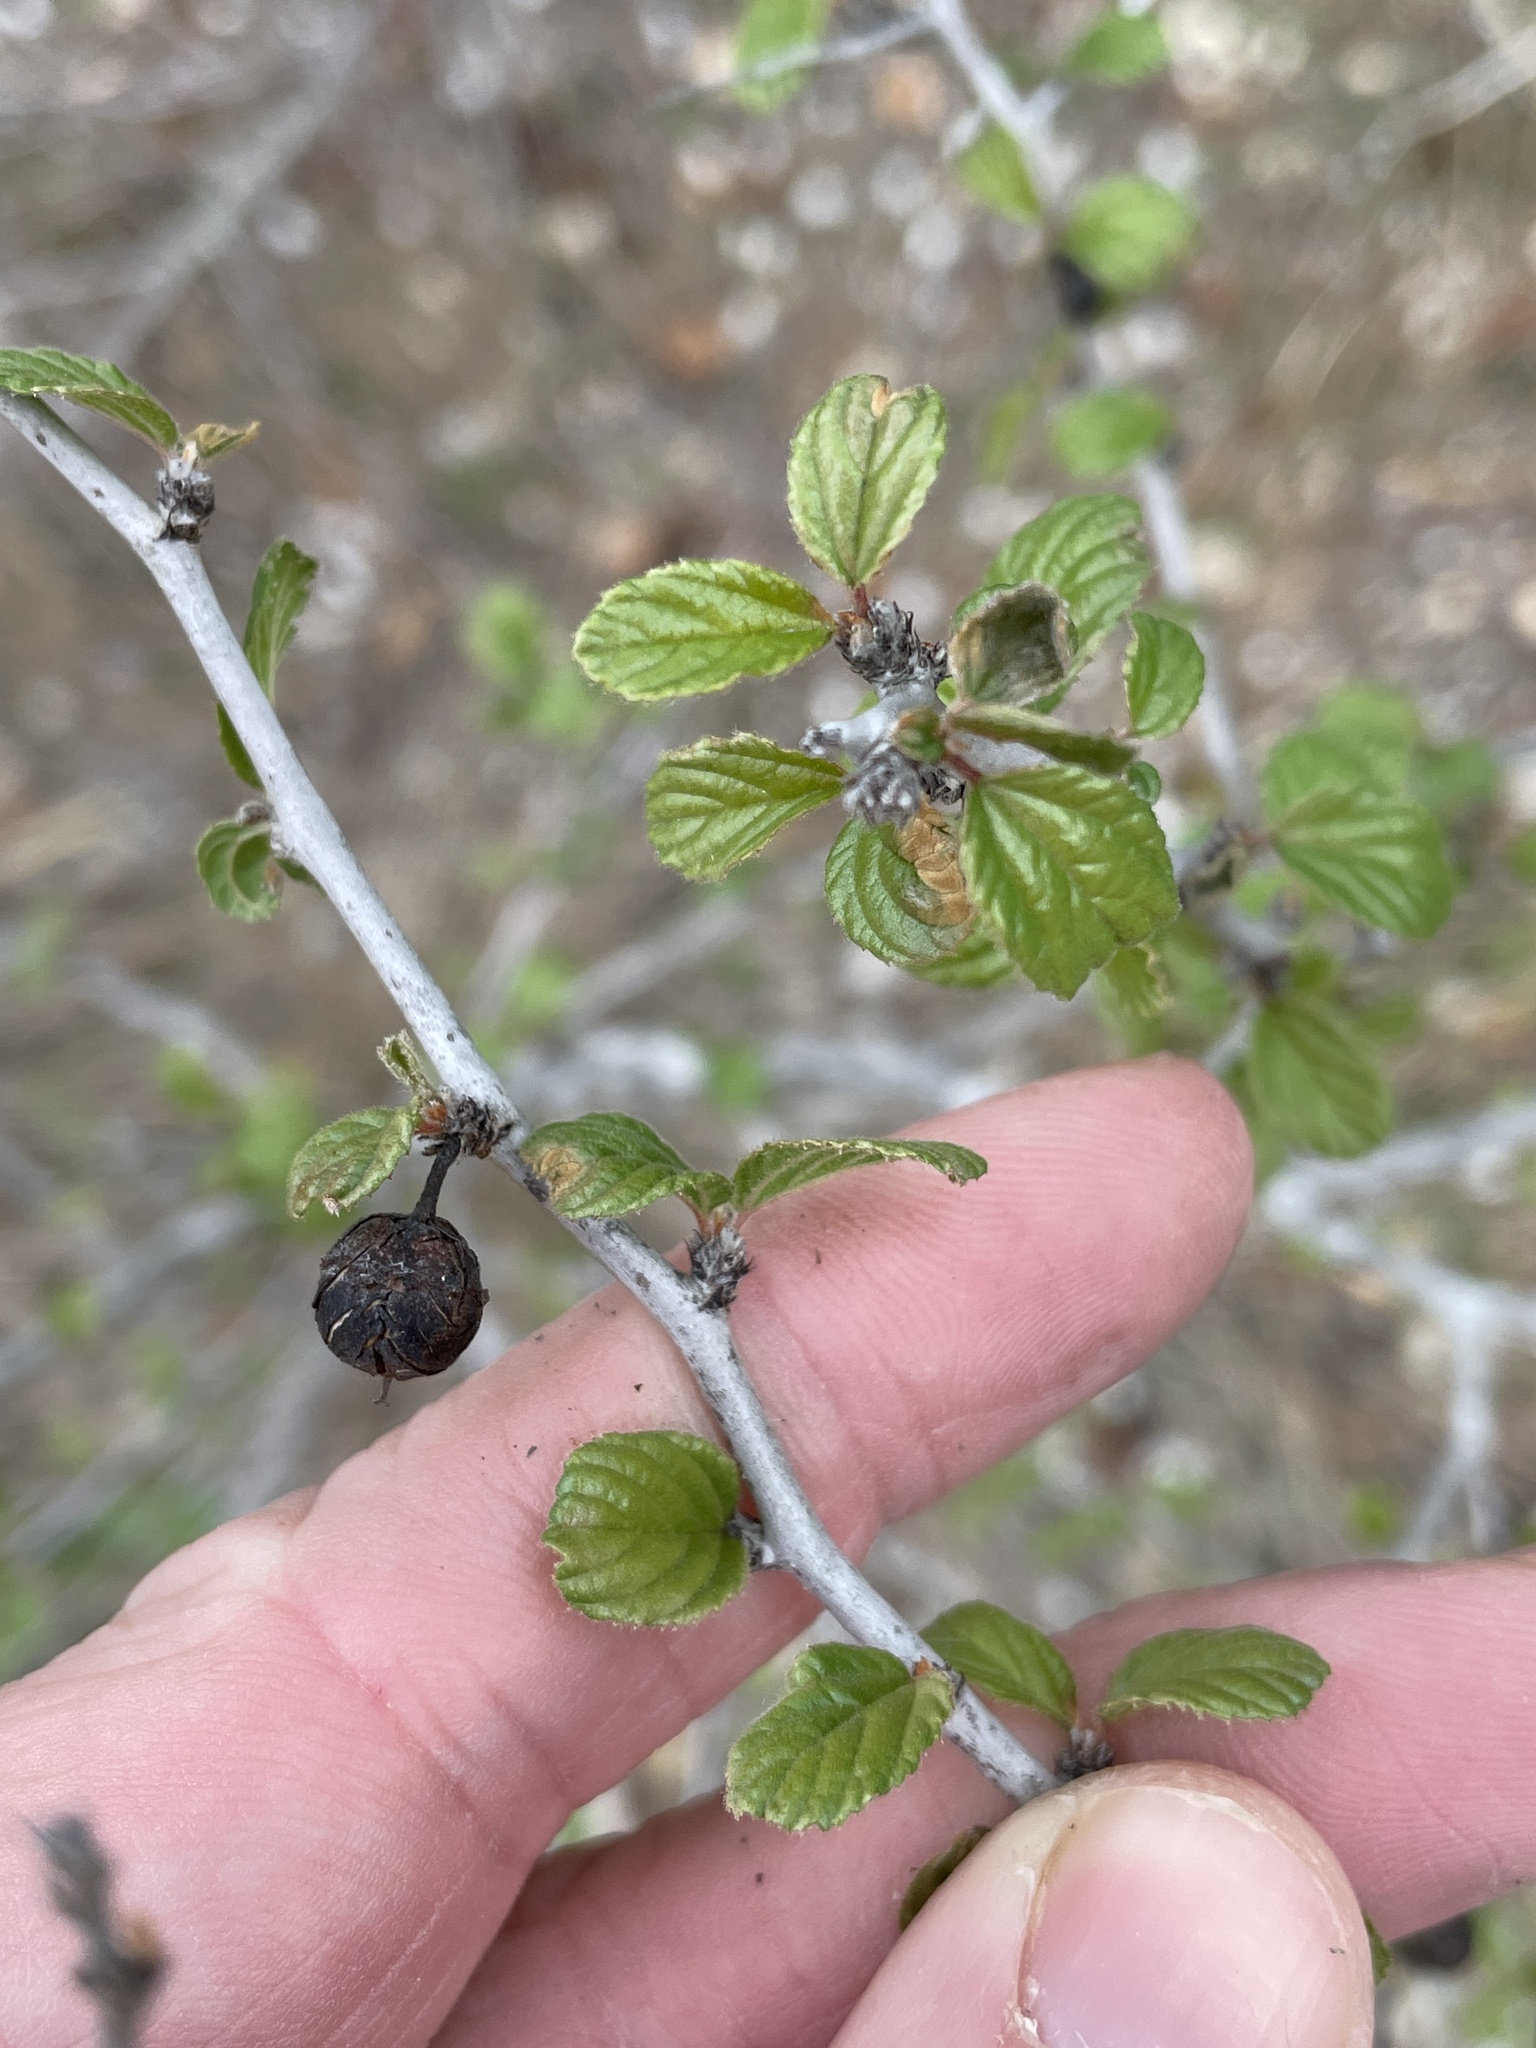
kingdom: Plantae
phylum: Tracheophyta
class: Magnoliopsida
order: Rosales
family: Rhamnaceae
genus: Colubrina
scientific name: Colubrina texensis
